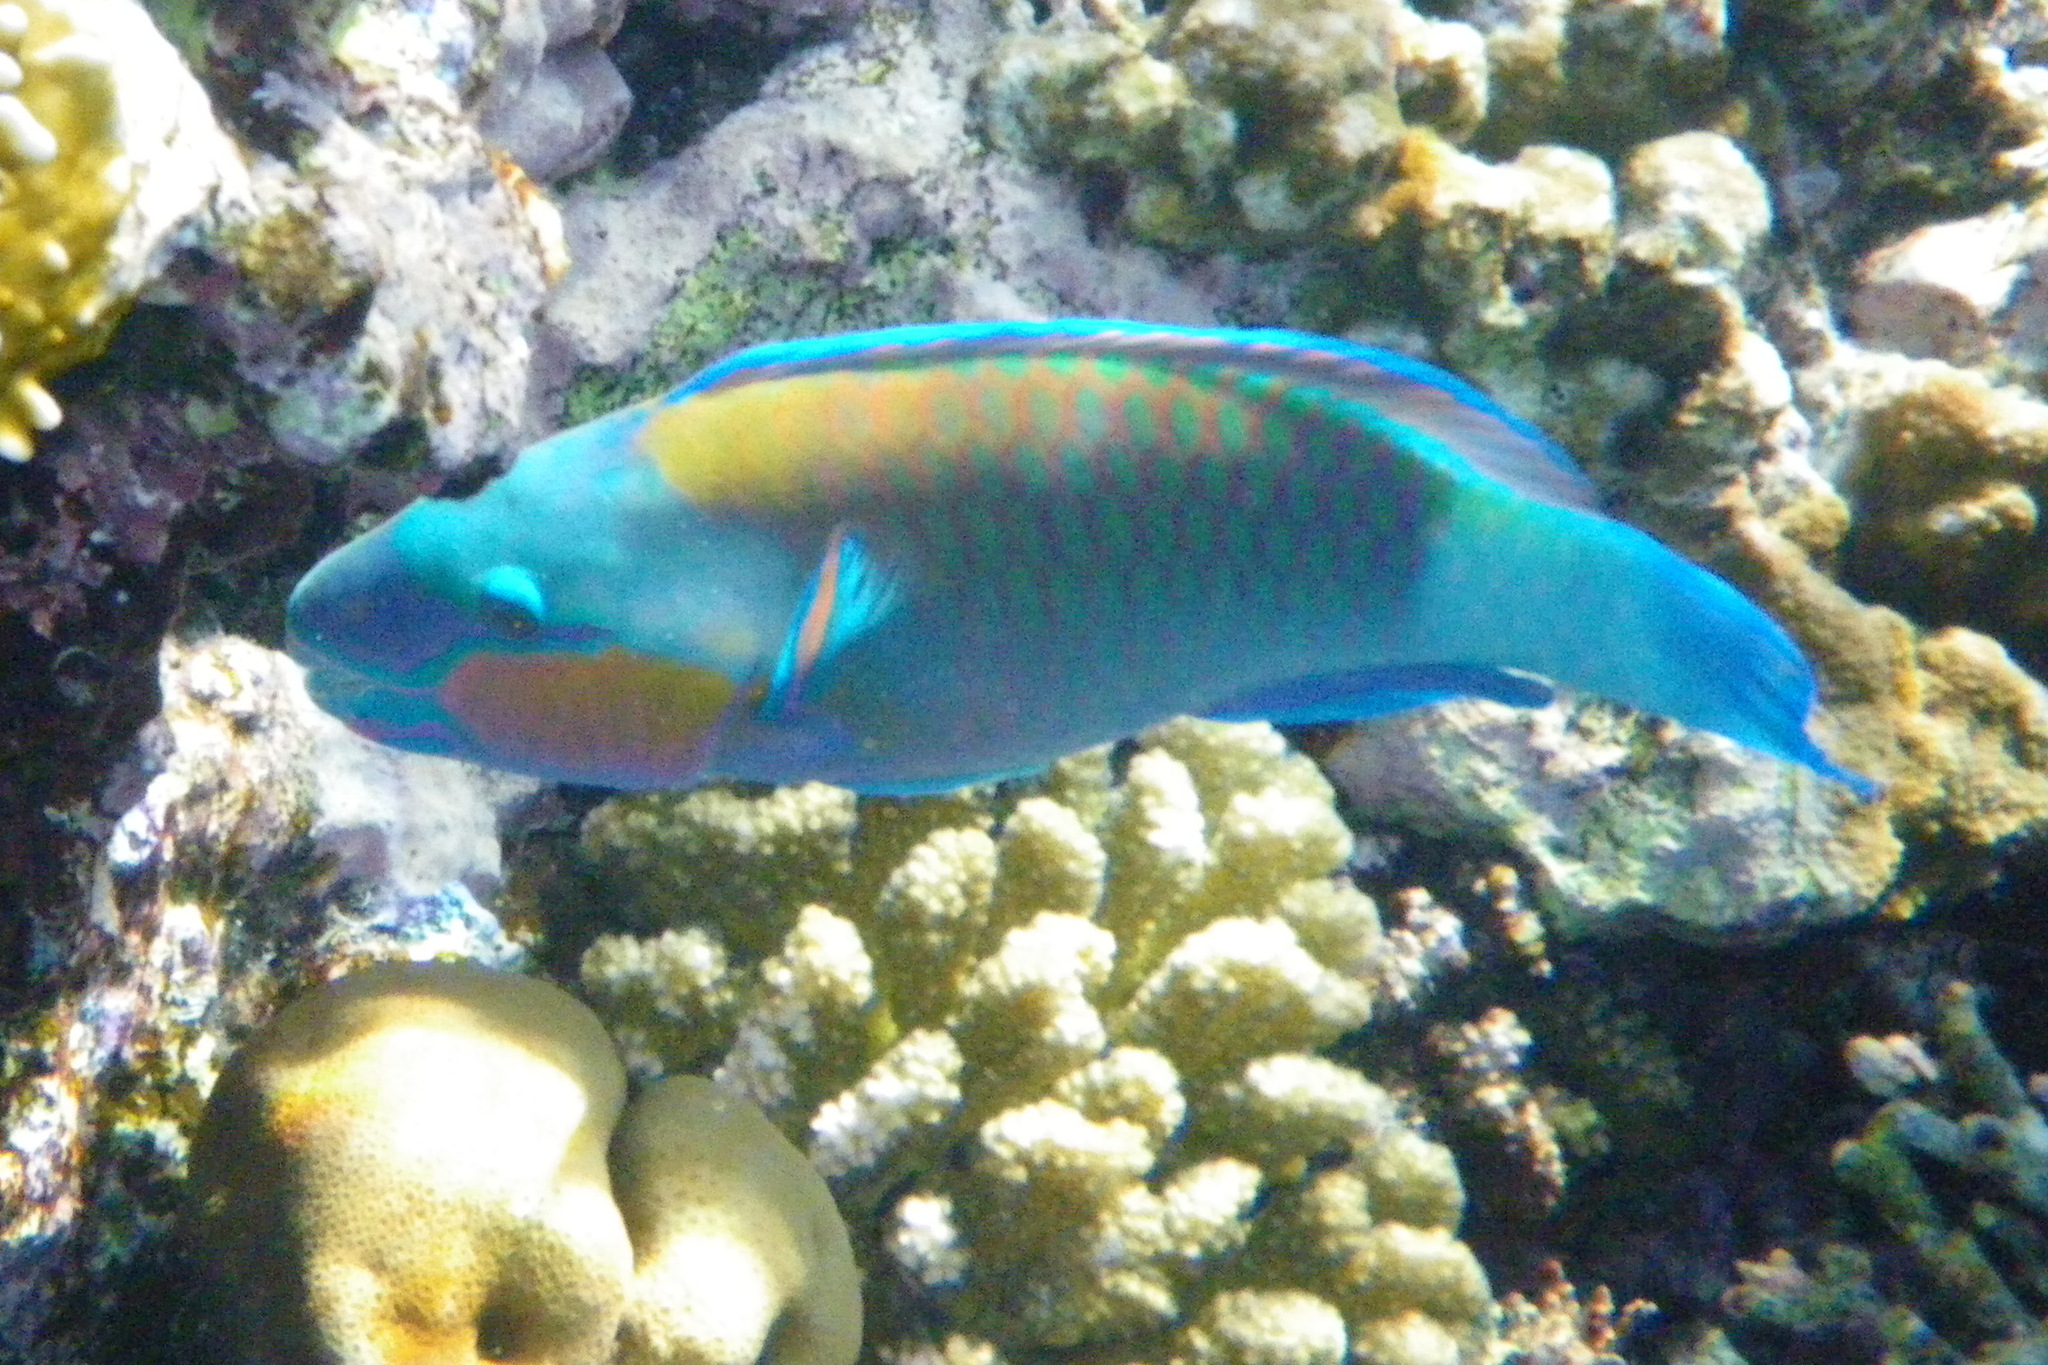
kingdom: Animalia
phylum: Chordata
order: Perciformes
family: Scaridae
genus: Chlorurus
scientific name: Chlorurus sordidus
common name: Bullethead parrotfish
